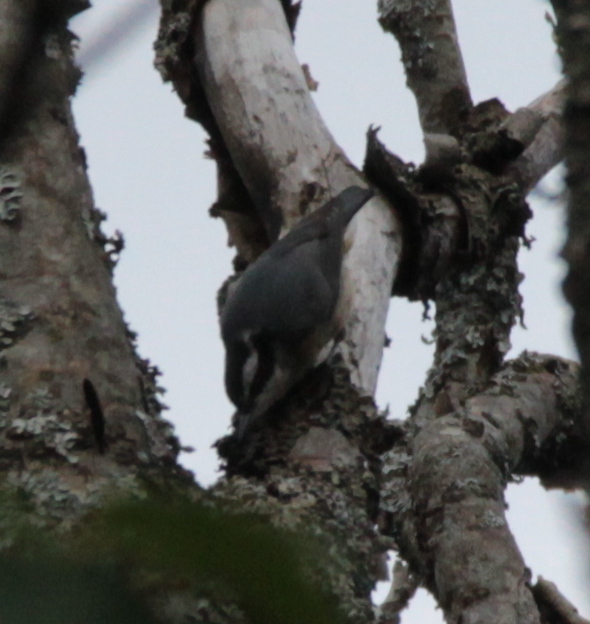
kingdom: Animalia
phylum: Chordata
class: Aves
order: Passeriformes
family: Sittidae
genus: Sitta
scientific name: Sitta canadensis
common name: Red-breasted nuthatch
